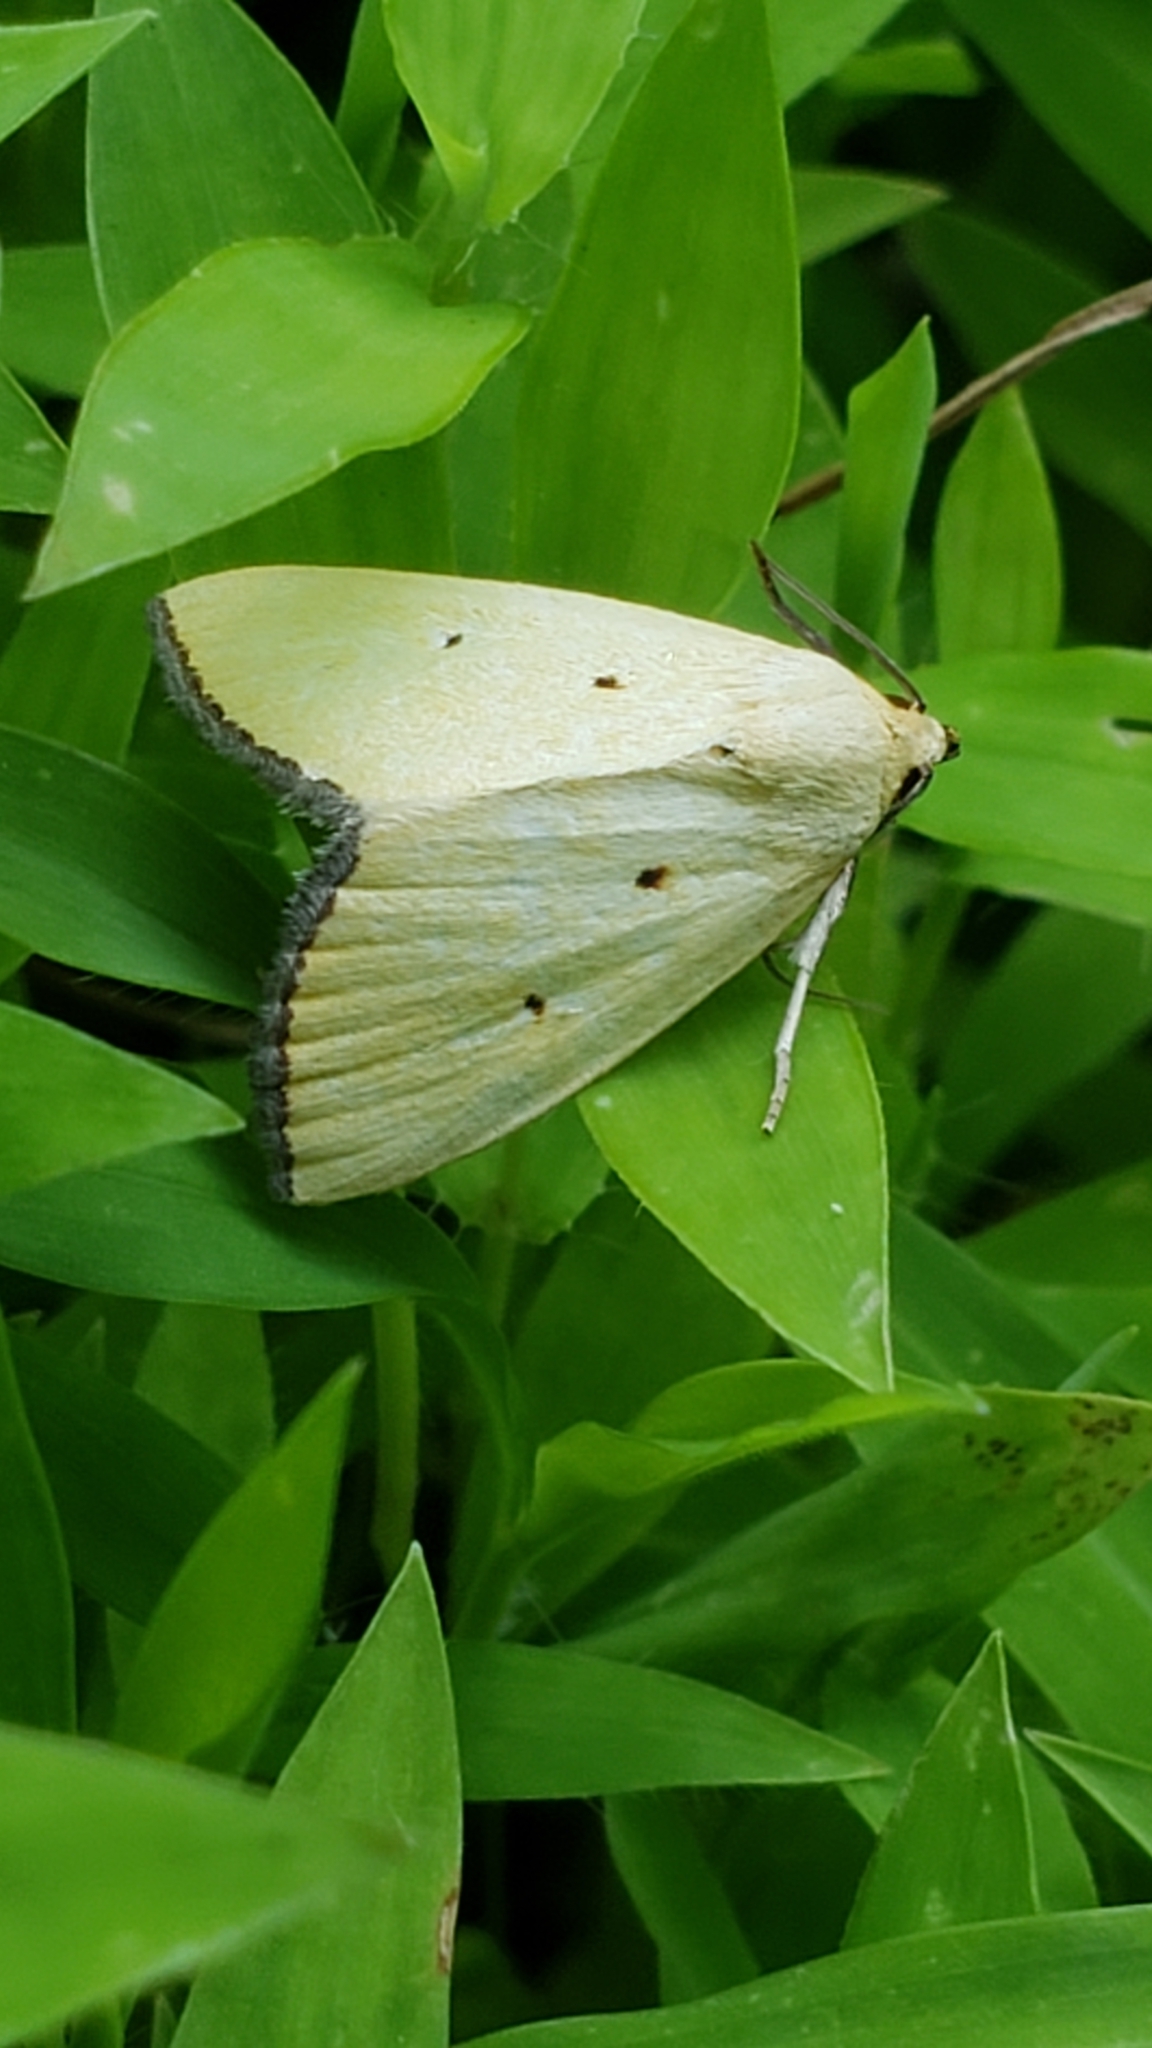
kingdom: Animalia
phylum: Arthropoda
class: Insecta
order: Lepidoptera
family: Noctuidae
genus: Marimatha
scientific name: Marimatha nigrofimbria
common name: Black-bordered lemon moth
